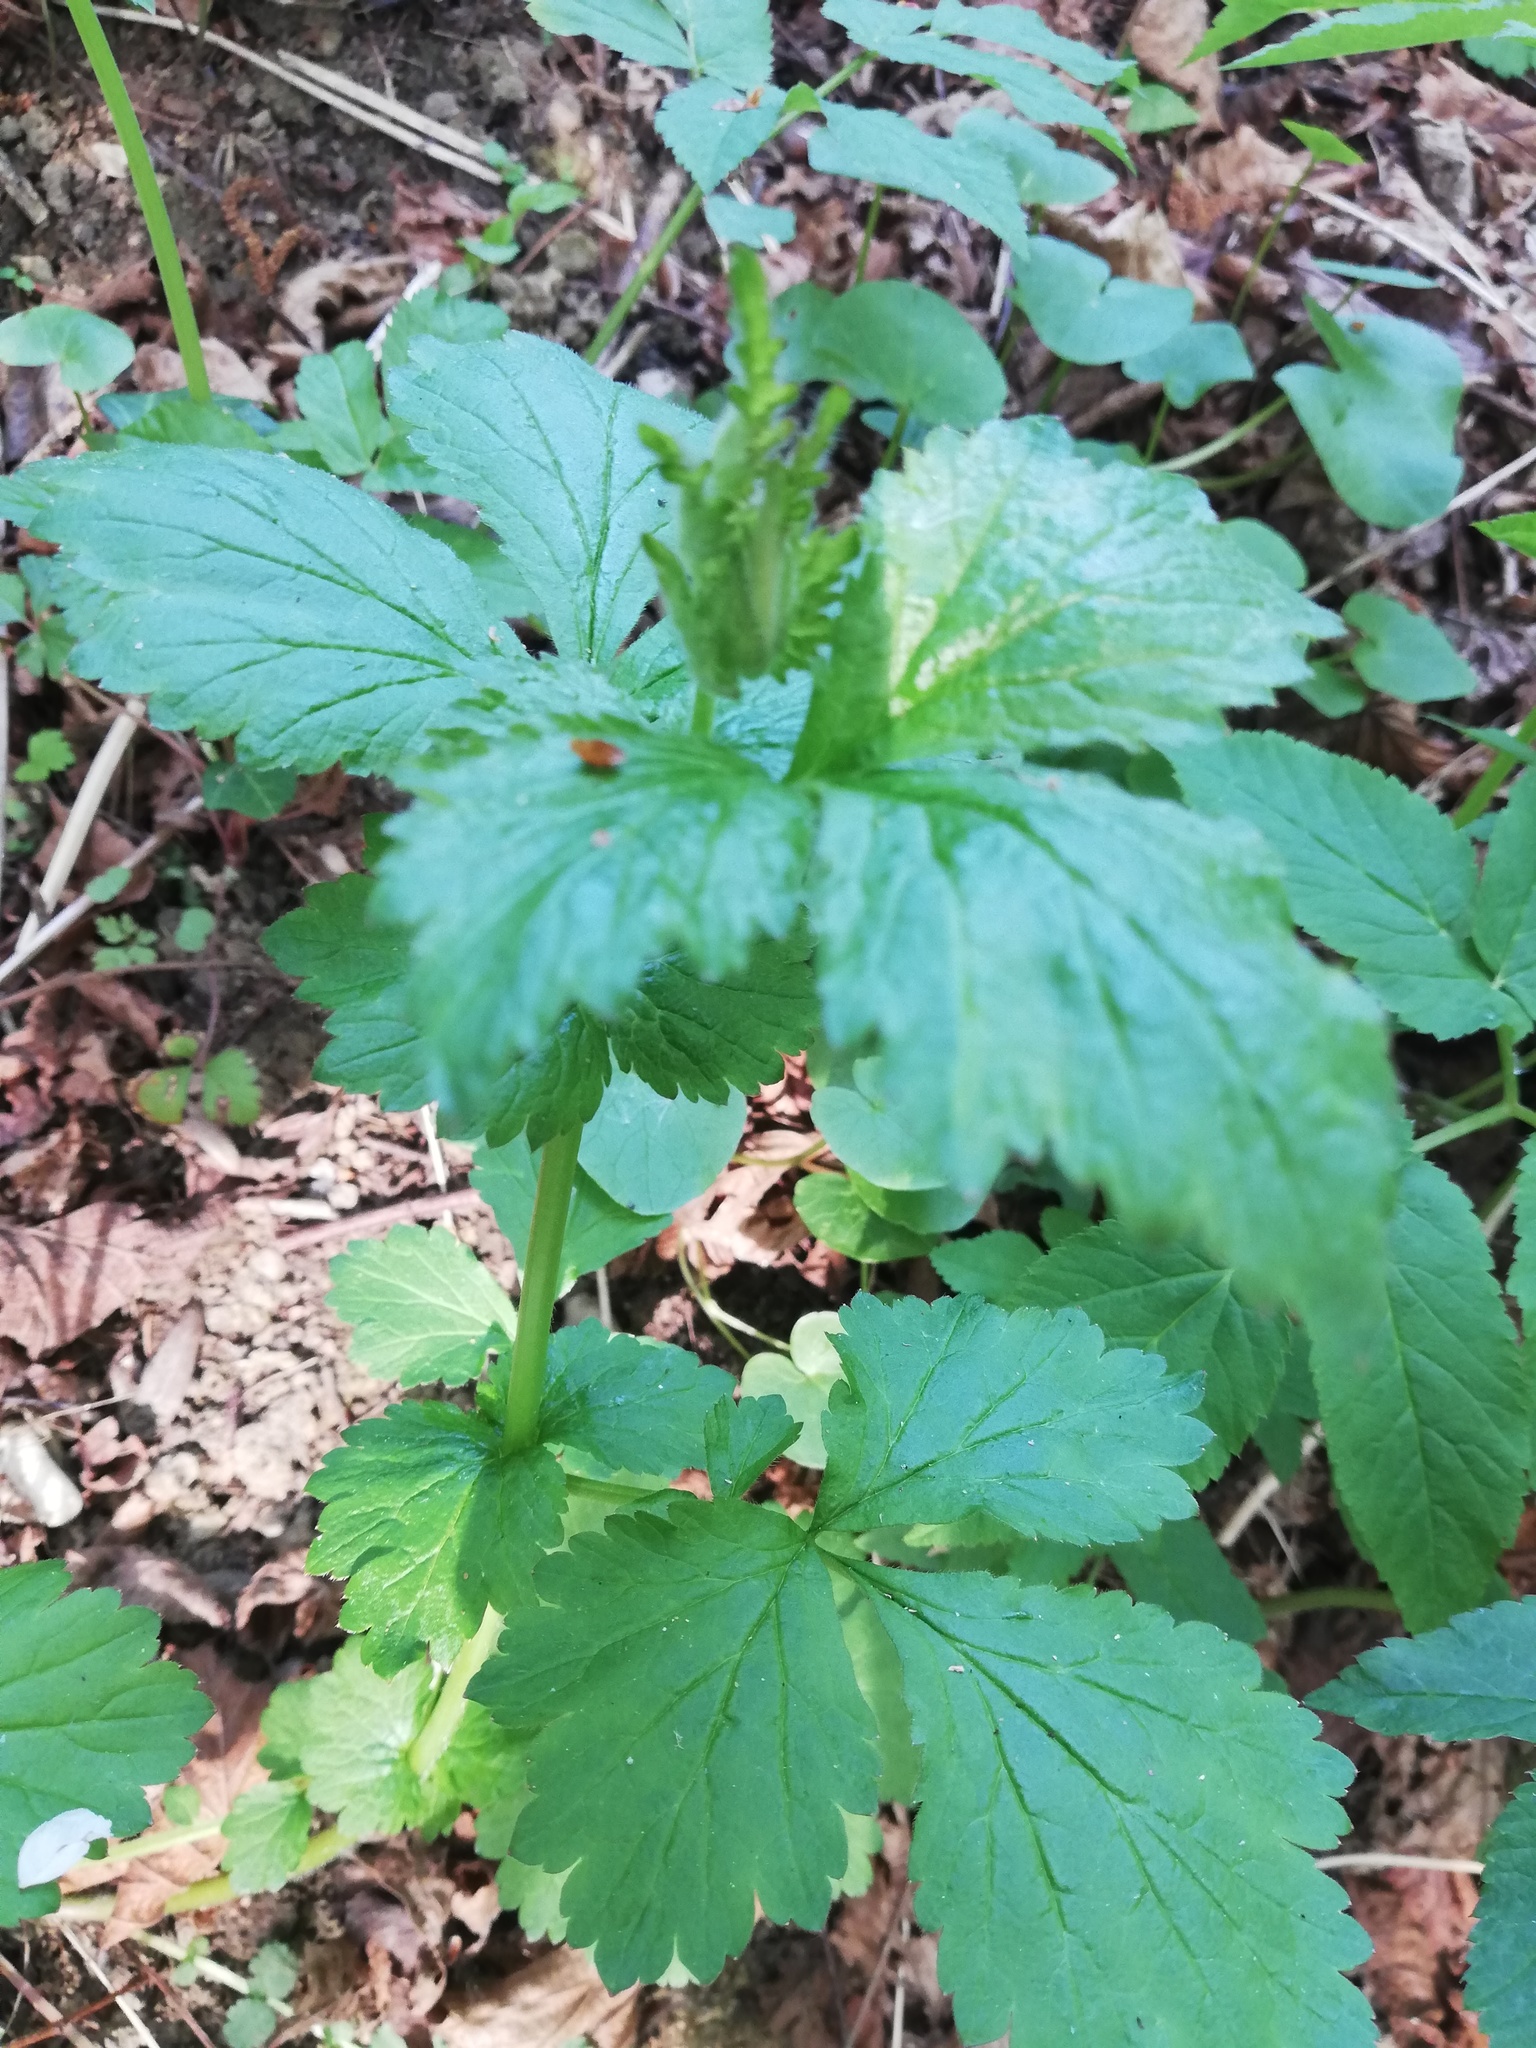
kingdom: Plantae
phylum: Tracheophyta
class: Magnoliopsida
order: Rosales
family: Rosaceae
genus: Geum
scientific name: Geum urbanum
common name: Wood avens
